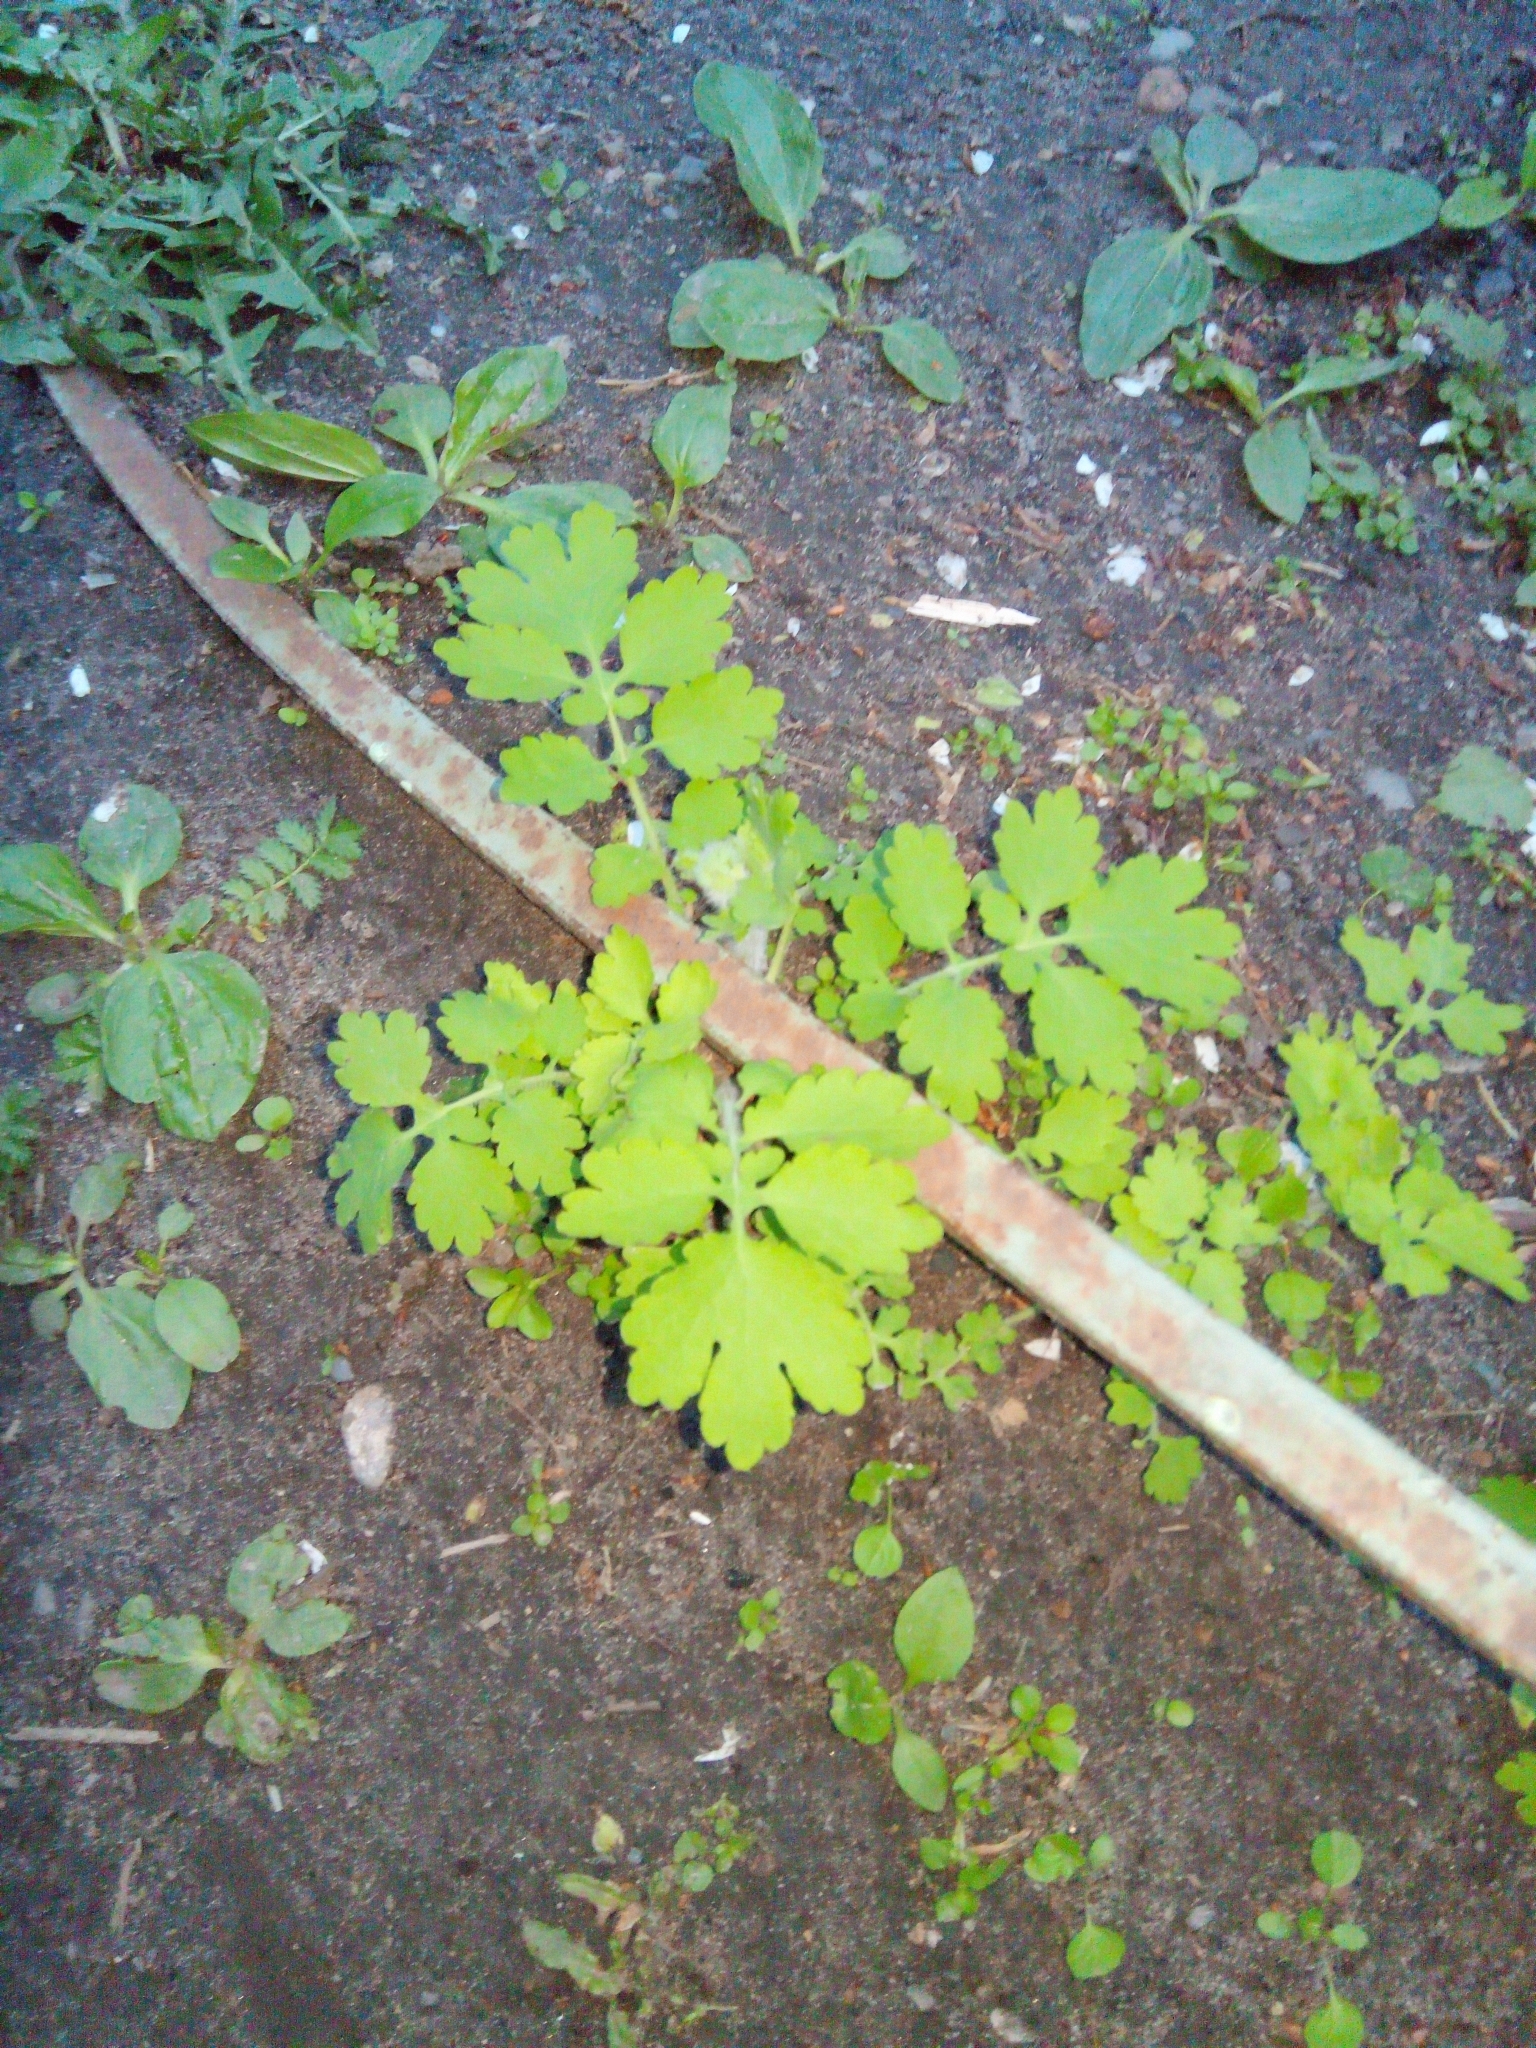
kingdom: Plantae
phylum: Tracheophyta
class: Magnoliopsida
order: Ranunculales
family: Papaveraceae
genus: Chelidonium
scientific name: Chelidonium majus
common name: Greater celandine
